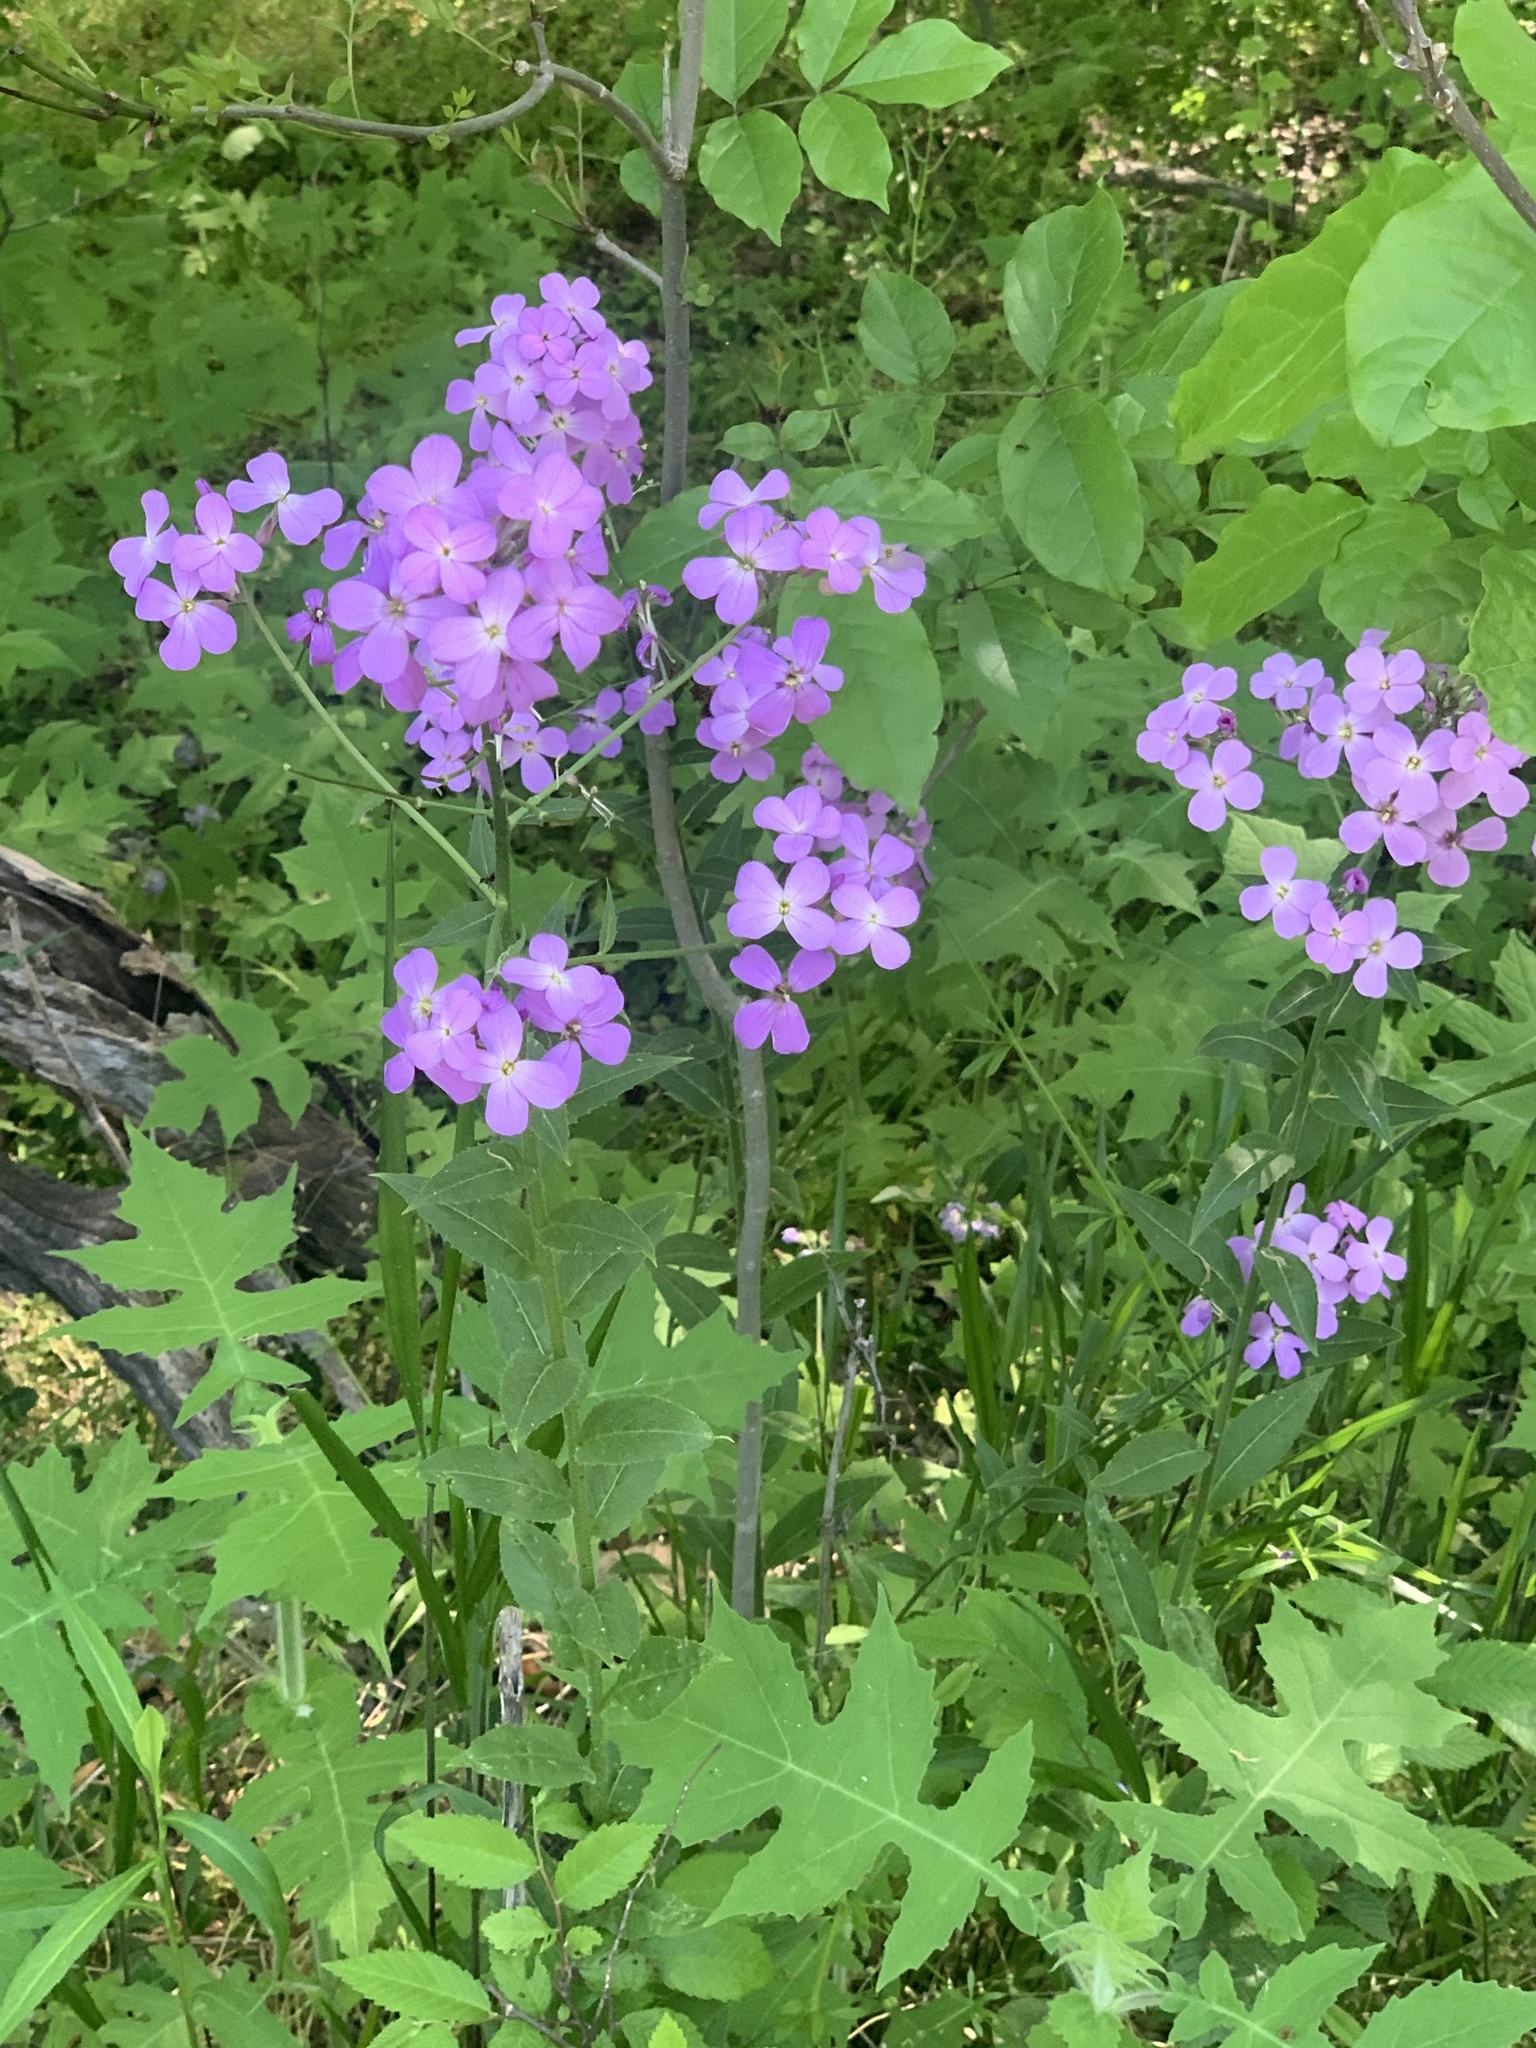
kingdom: Plantae
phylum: Tracheophyta
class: Magnoliopsida
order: Brassicales
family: Brassicaceae
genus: Hesperis
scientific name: Hesperis matronalis
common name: Dame's-violet
